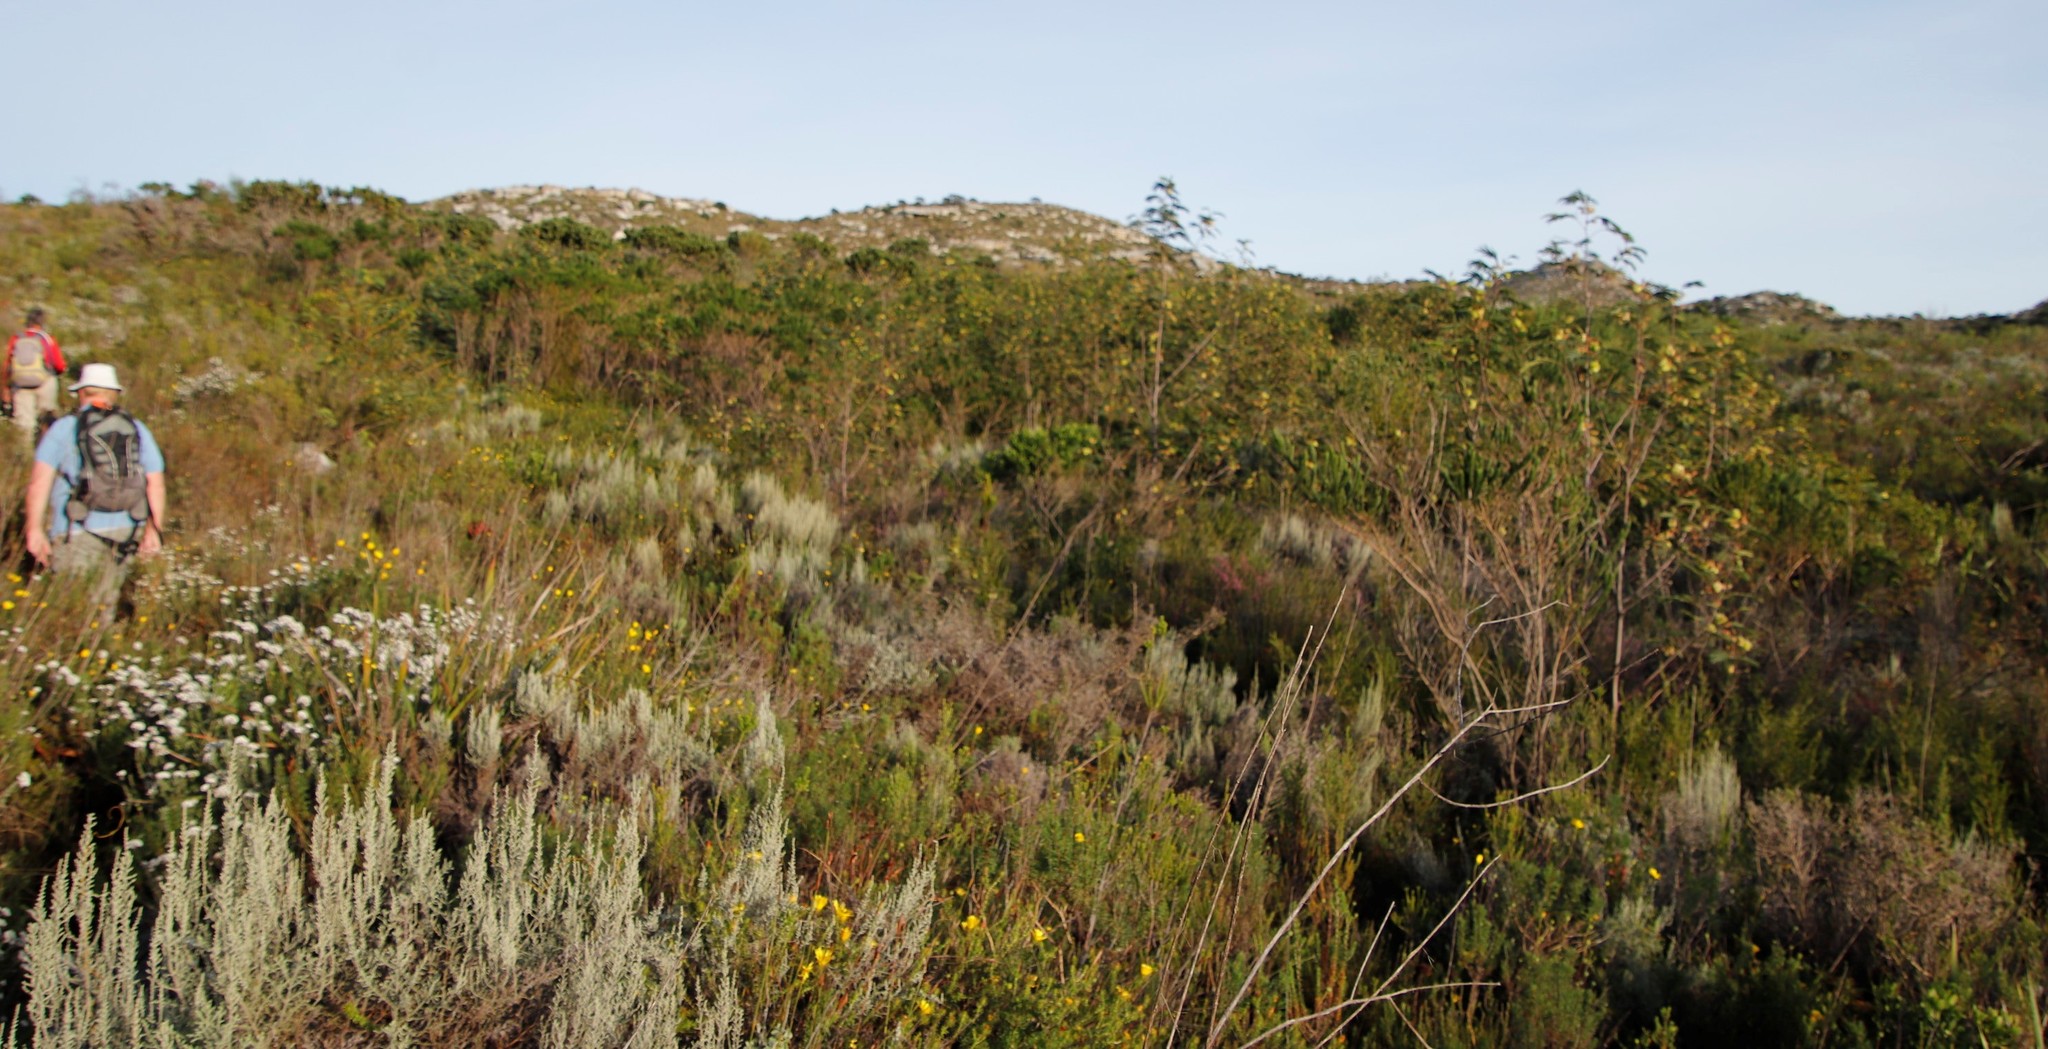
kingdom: Plantae
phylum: Tracheophyta
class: Magnoliopsida
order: Fabales
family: Fabaceae
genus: Paraserianthes
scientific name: Paraserianthes lophantha
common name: Plume albizia
